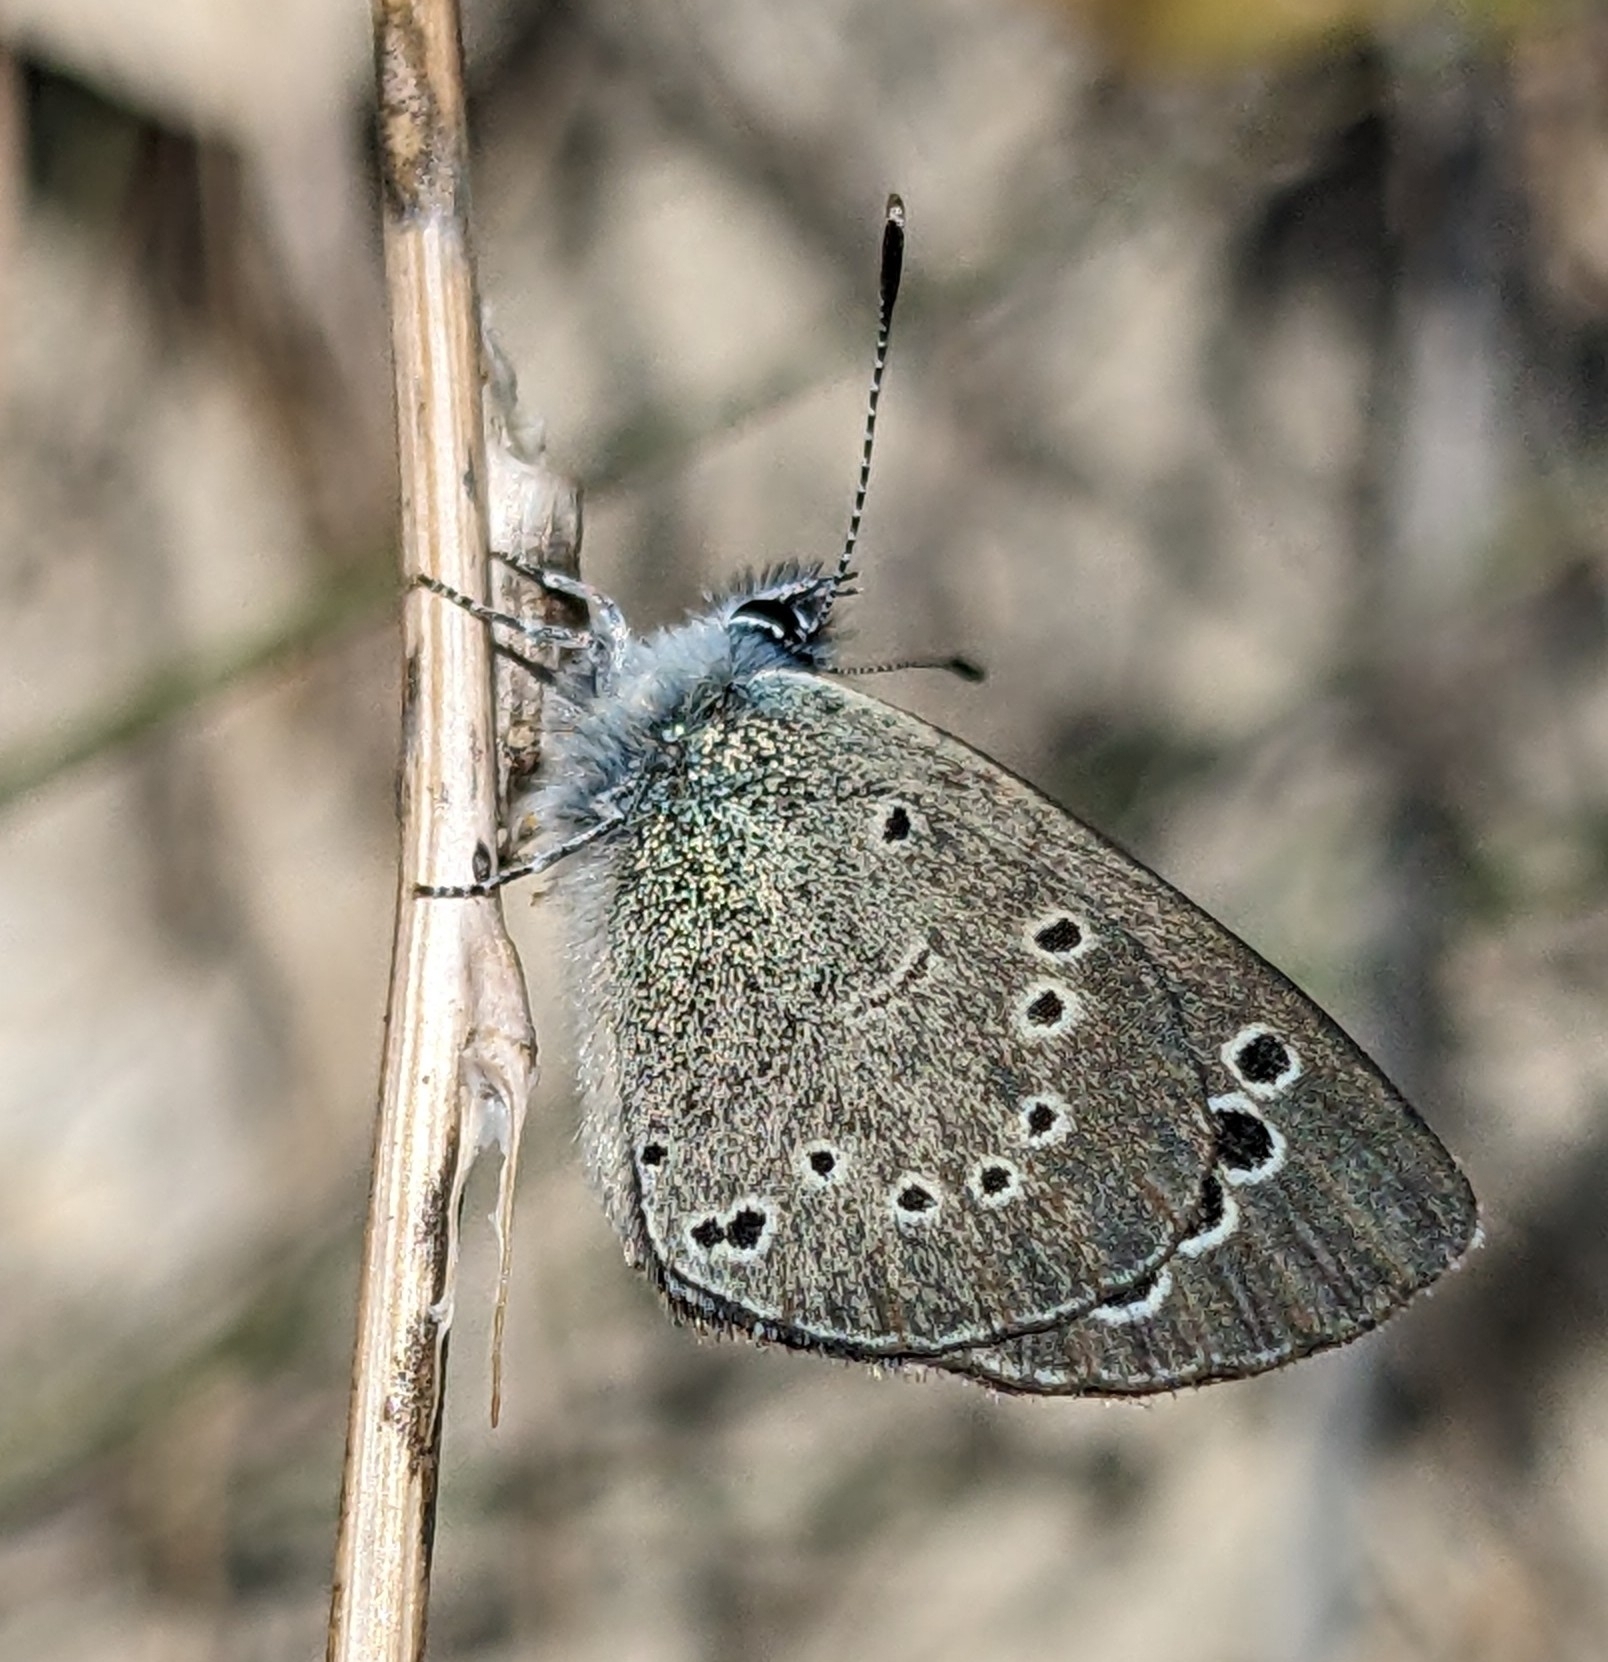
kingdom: Animalia
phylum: Arthropoda
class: Insecta
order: Lepidoptera
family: Lycaenidae
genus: Glaucopsyche
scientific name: Glaucopsyche paphos
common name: Paphos blue
